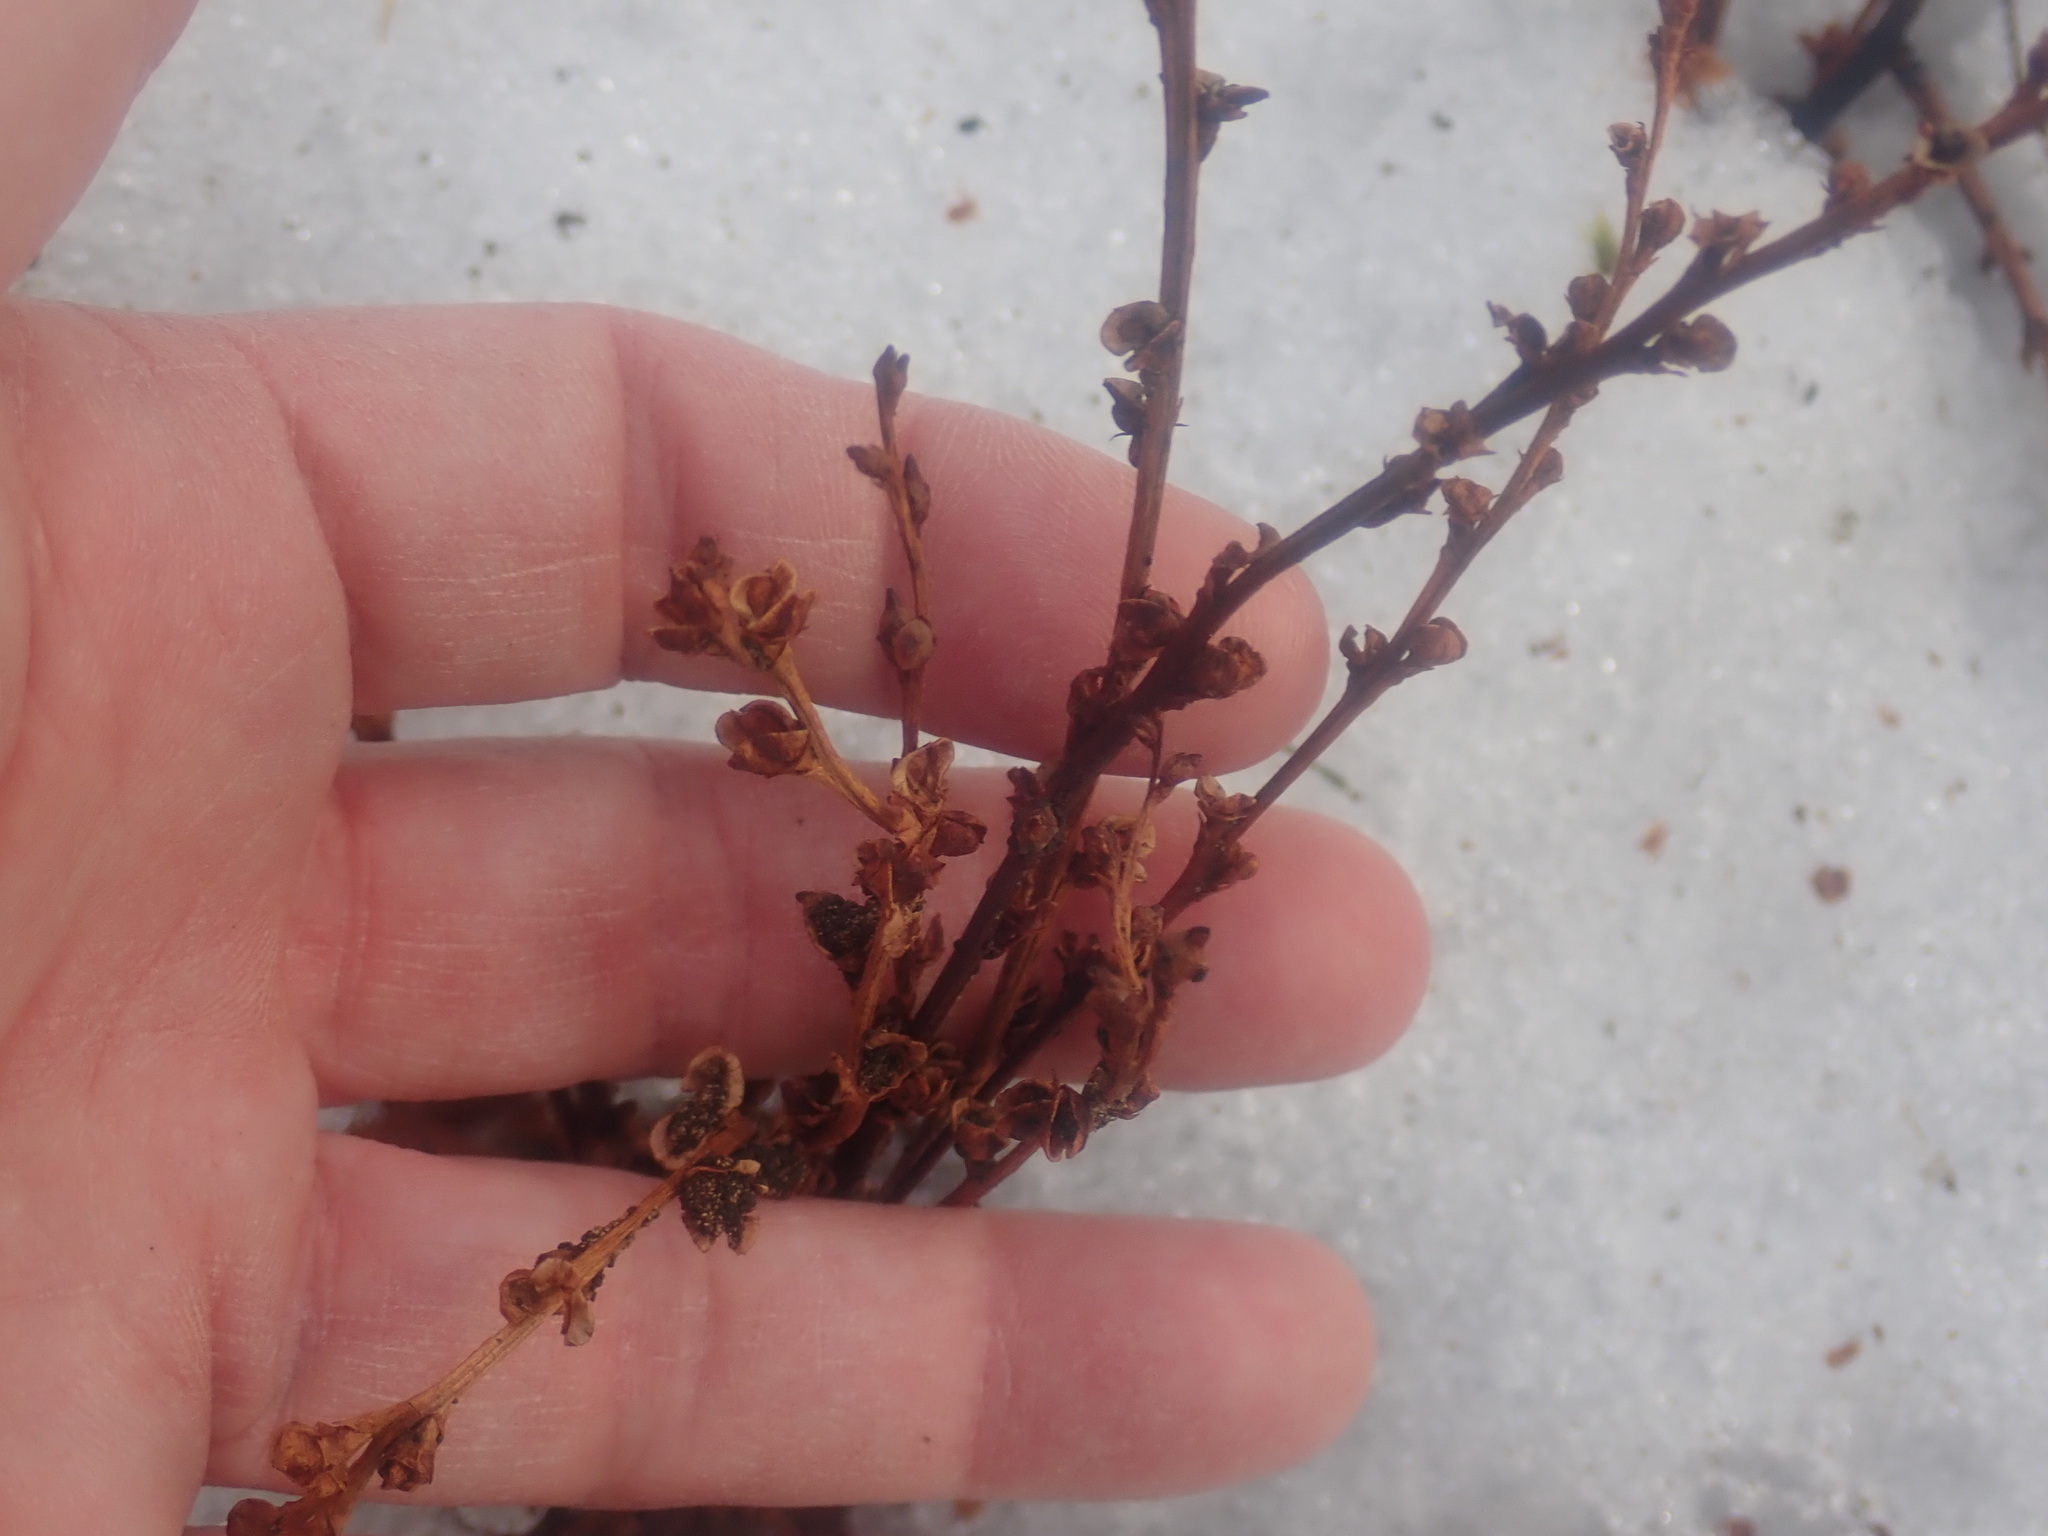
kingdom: Plantae
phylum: Tracheophyta
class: Magnoliopsida
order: Lamiales
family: Orobanchaceae
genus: Epifagus
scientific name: Epifagus virginiana
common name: Beechdrops
